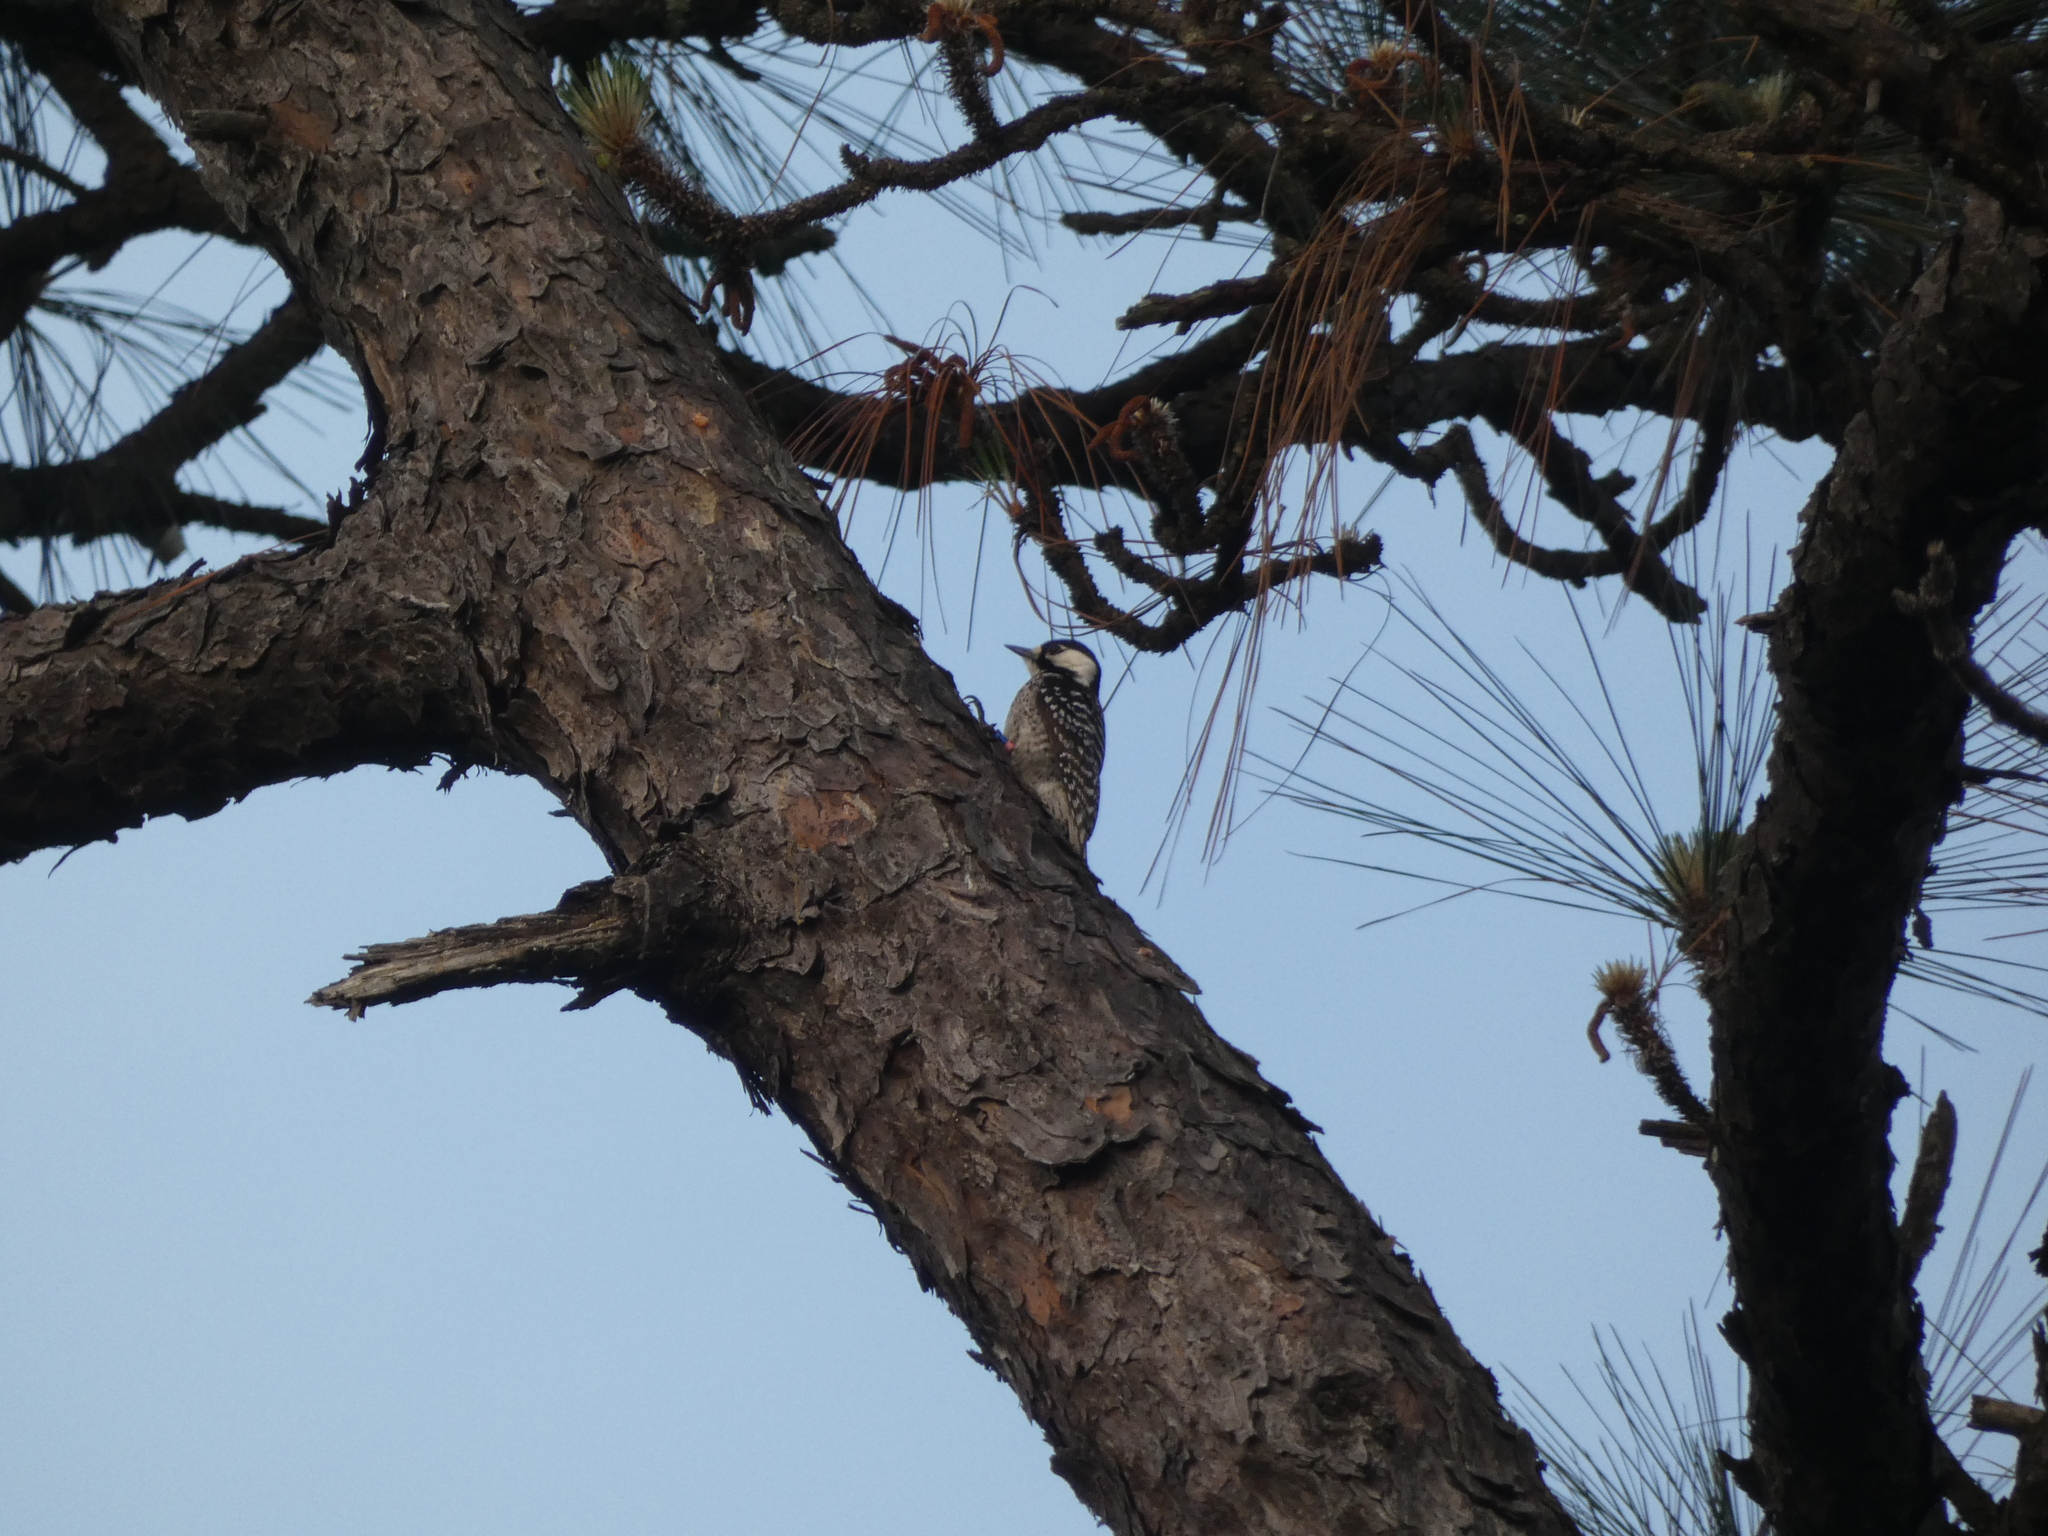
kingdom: Animalia
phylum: Chordata
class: Aves
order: Piciformes
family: Picidae
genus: Leuconotopicus
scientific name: Leuconotopicus borealis
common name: Red-cockaded woodpecker
